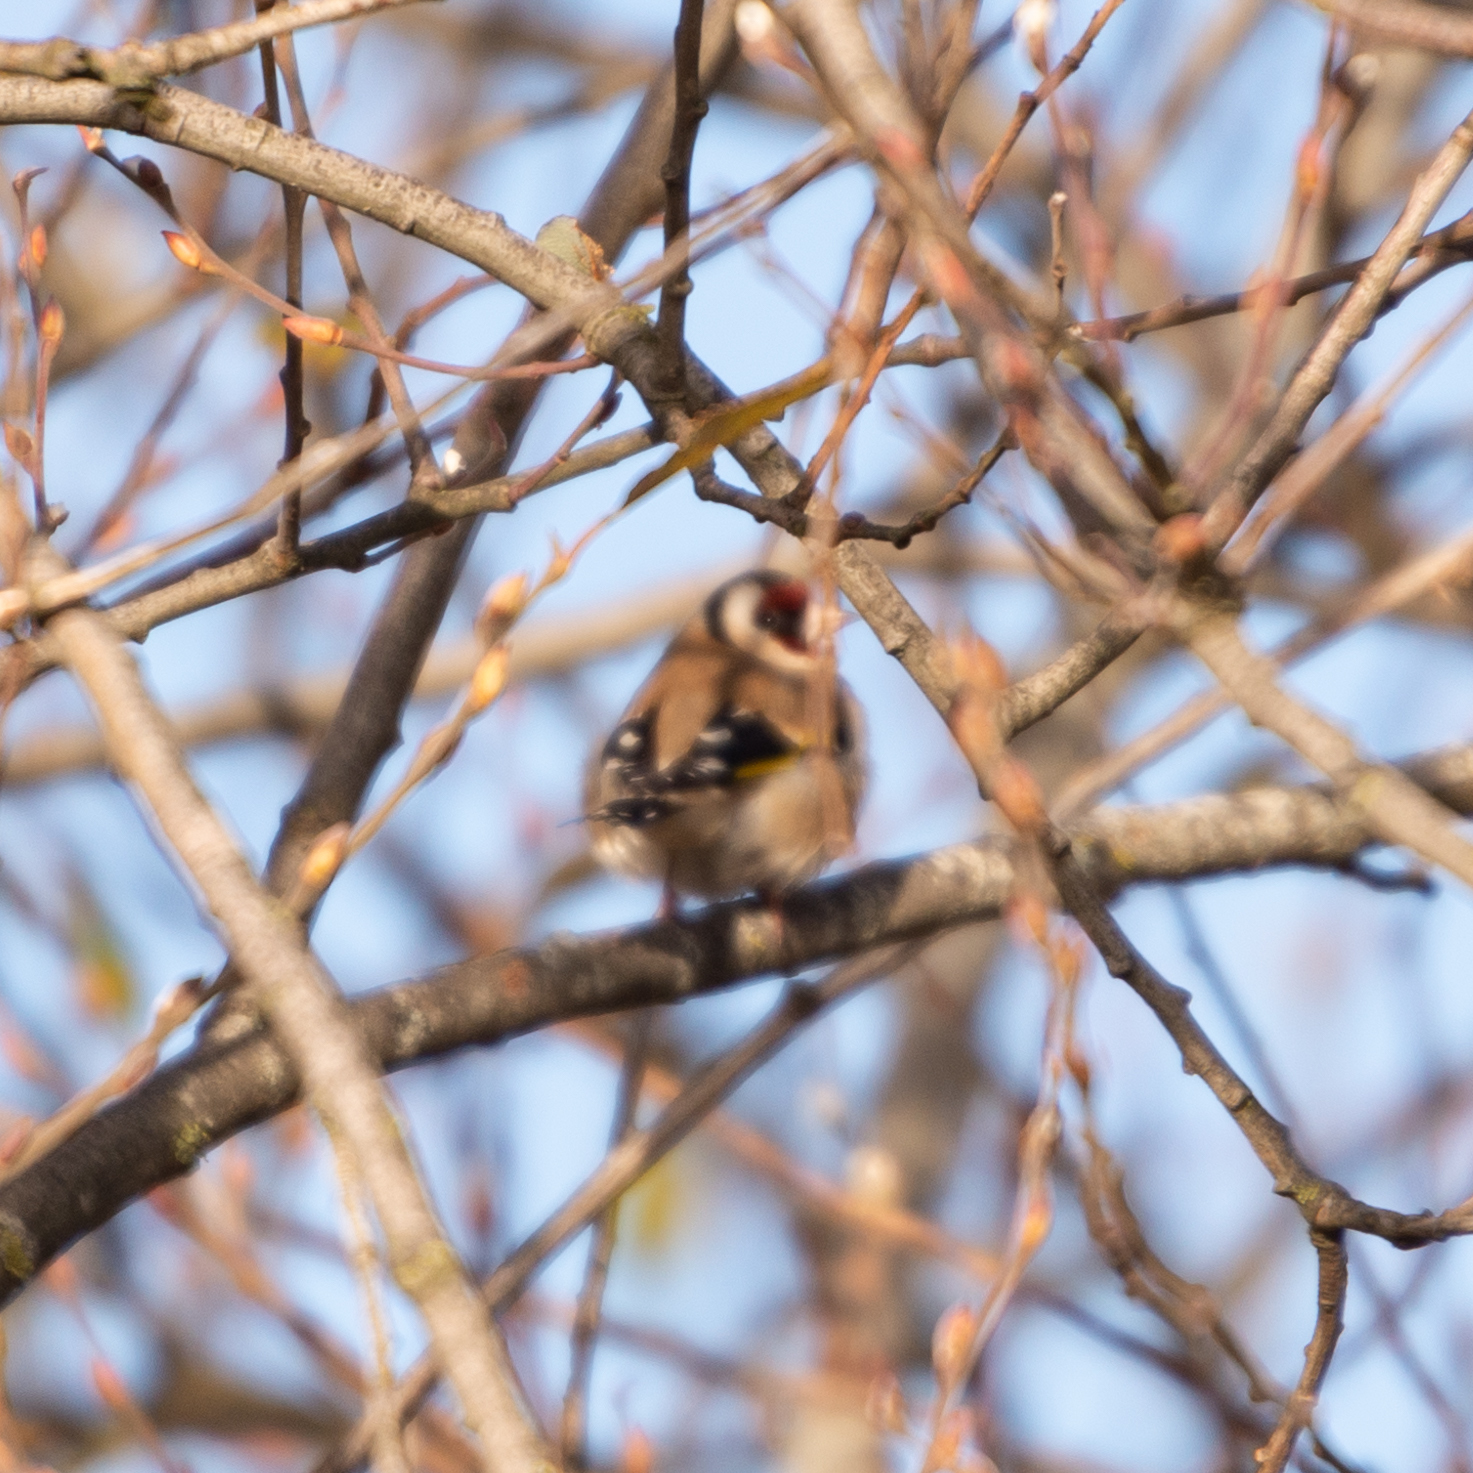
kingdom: Animalia
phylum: Chordata
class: Aves
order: Passeriformes
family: Fringillidae
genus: Carduelis
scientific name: Carduelis carduelis
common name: European goldfinch
